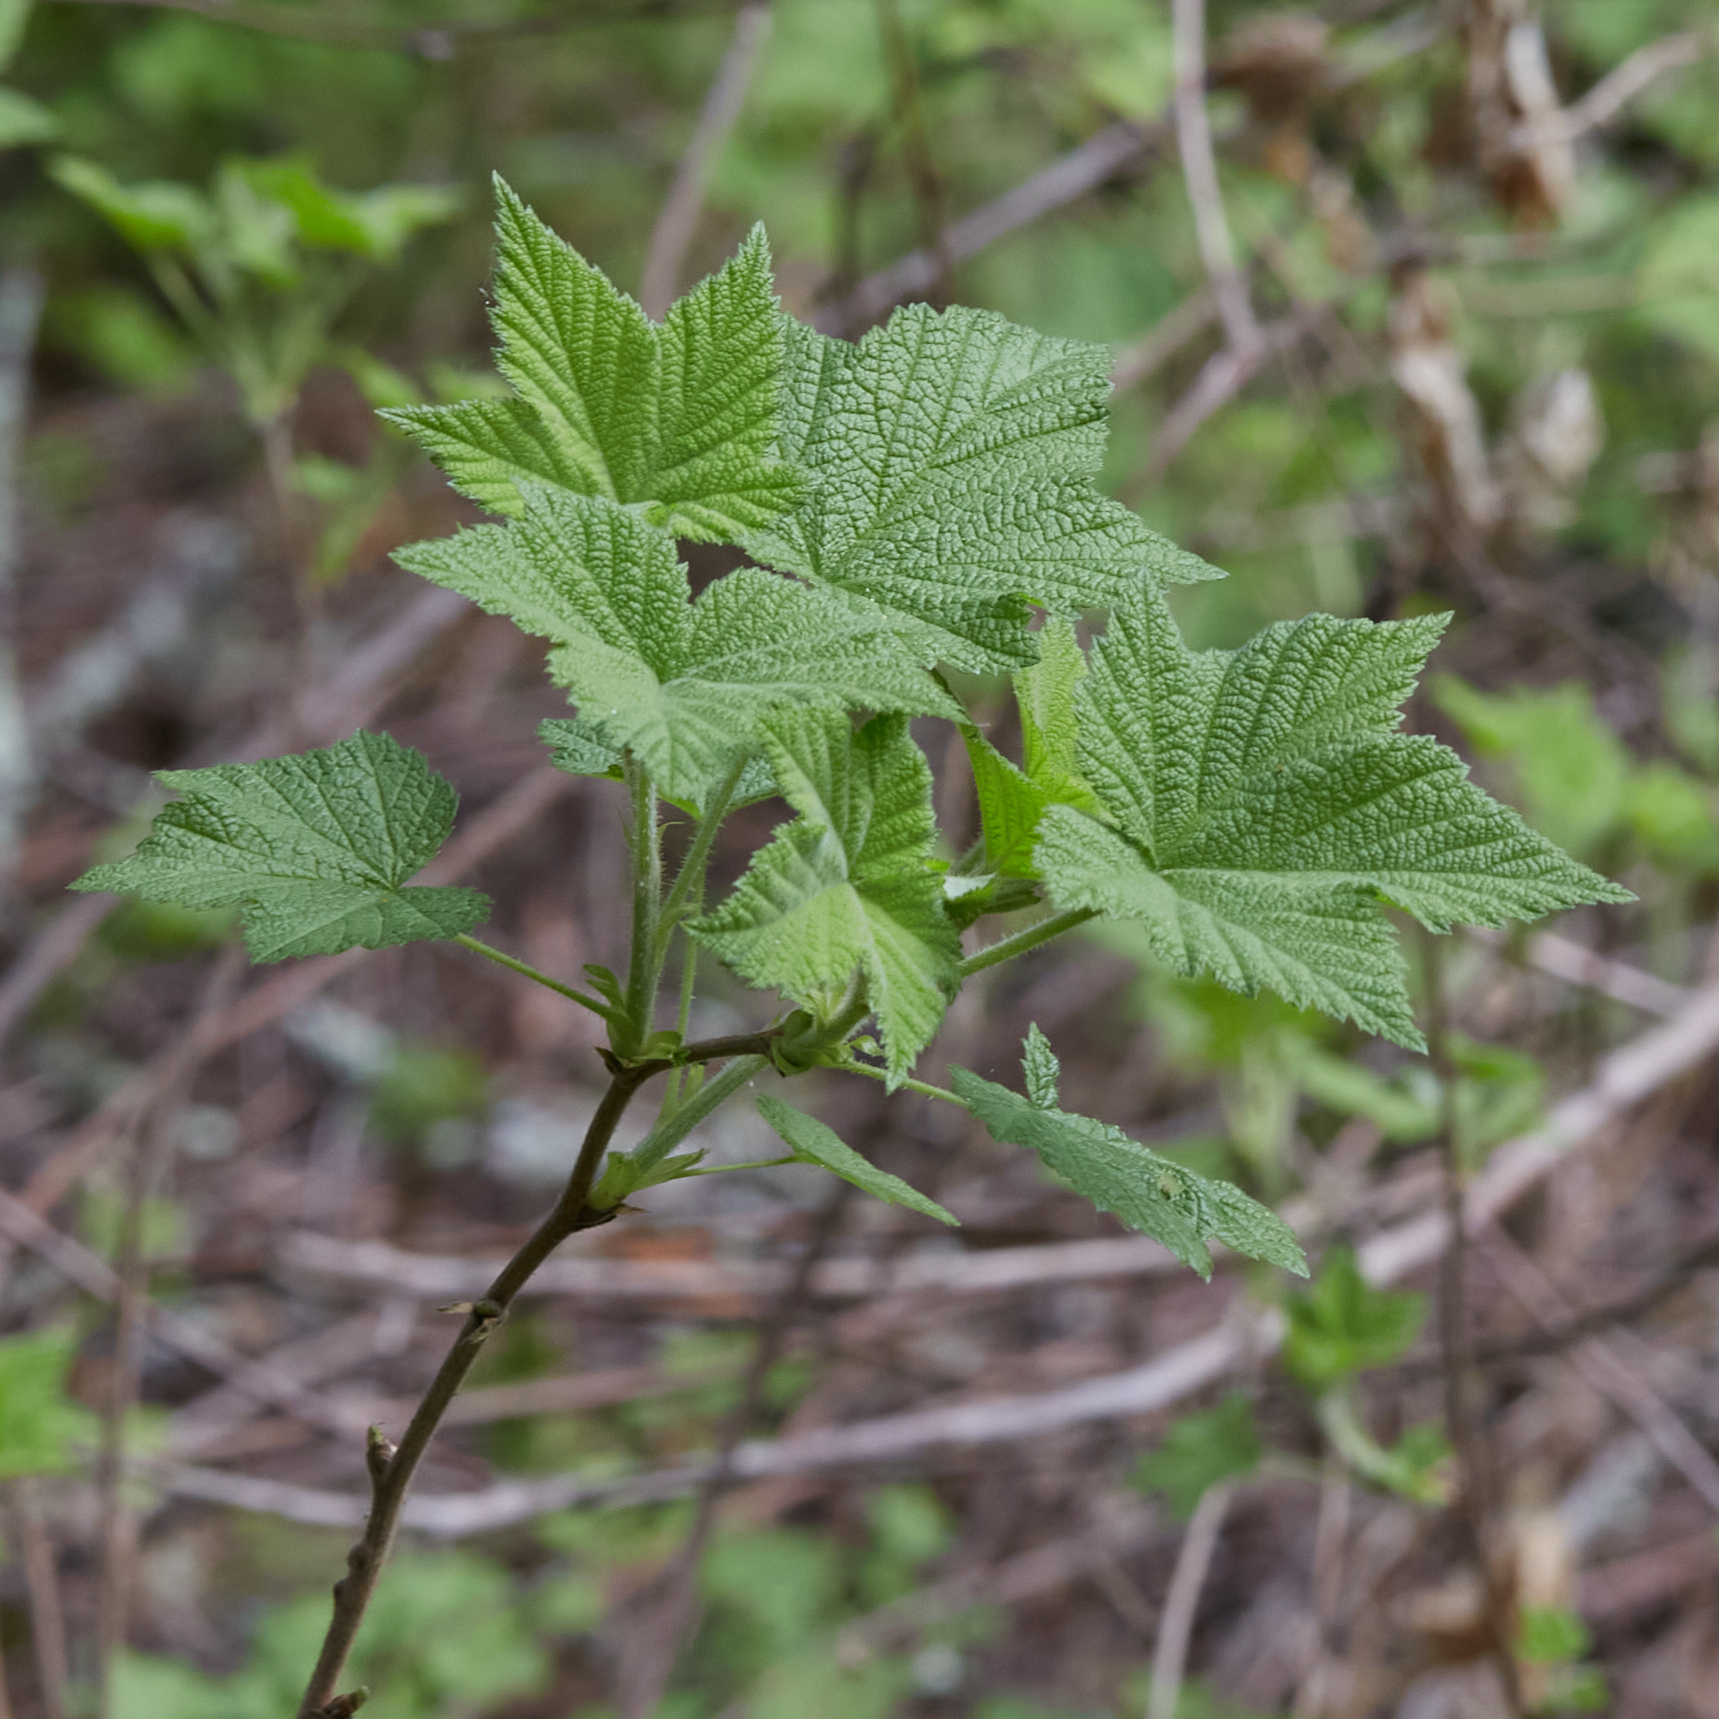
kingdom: Plantae
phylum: Tracheophyta
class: Magnoliopsida
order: Rosales
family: Rosaceae
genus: Rubus
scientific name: Rubus parviflorus
